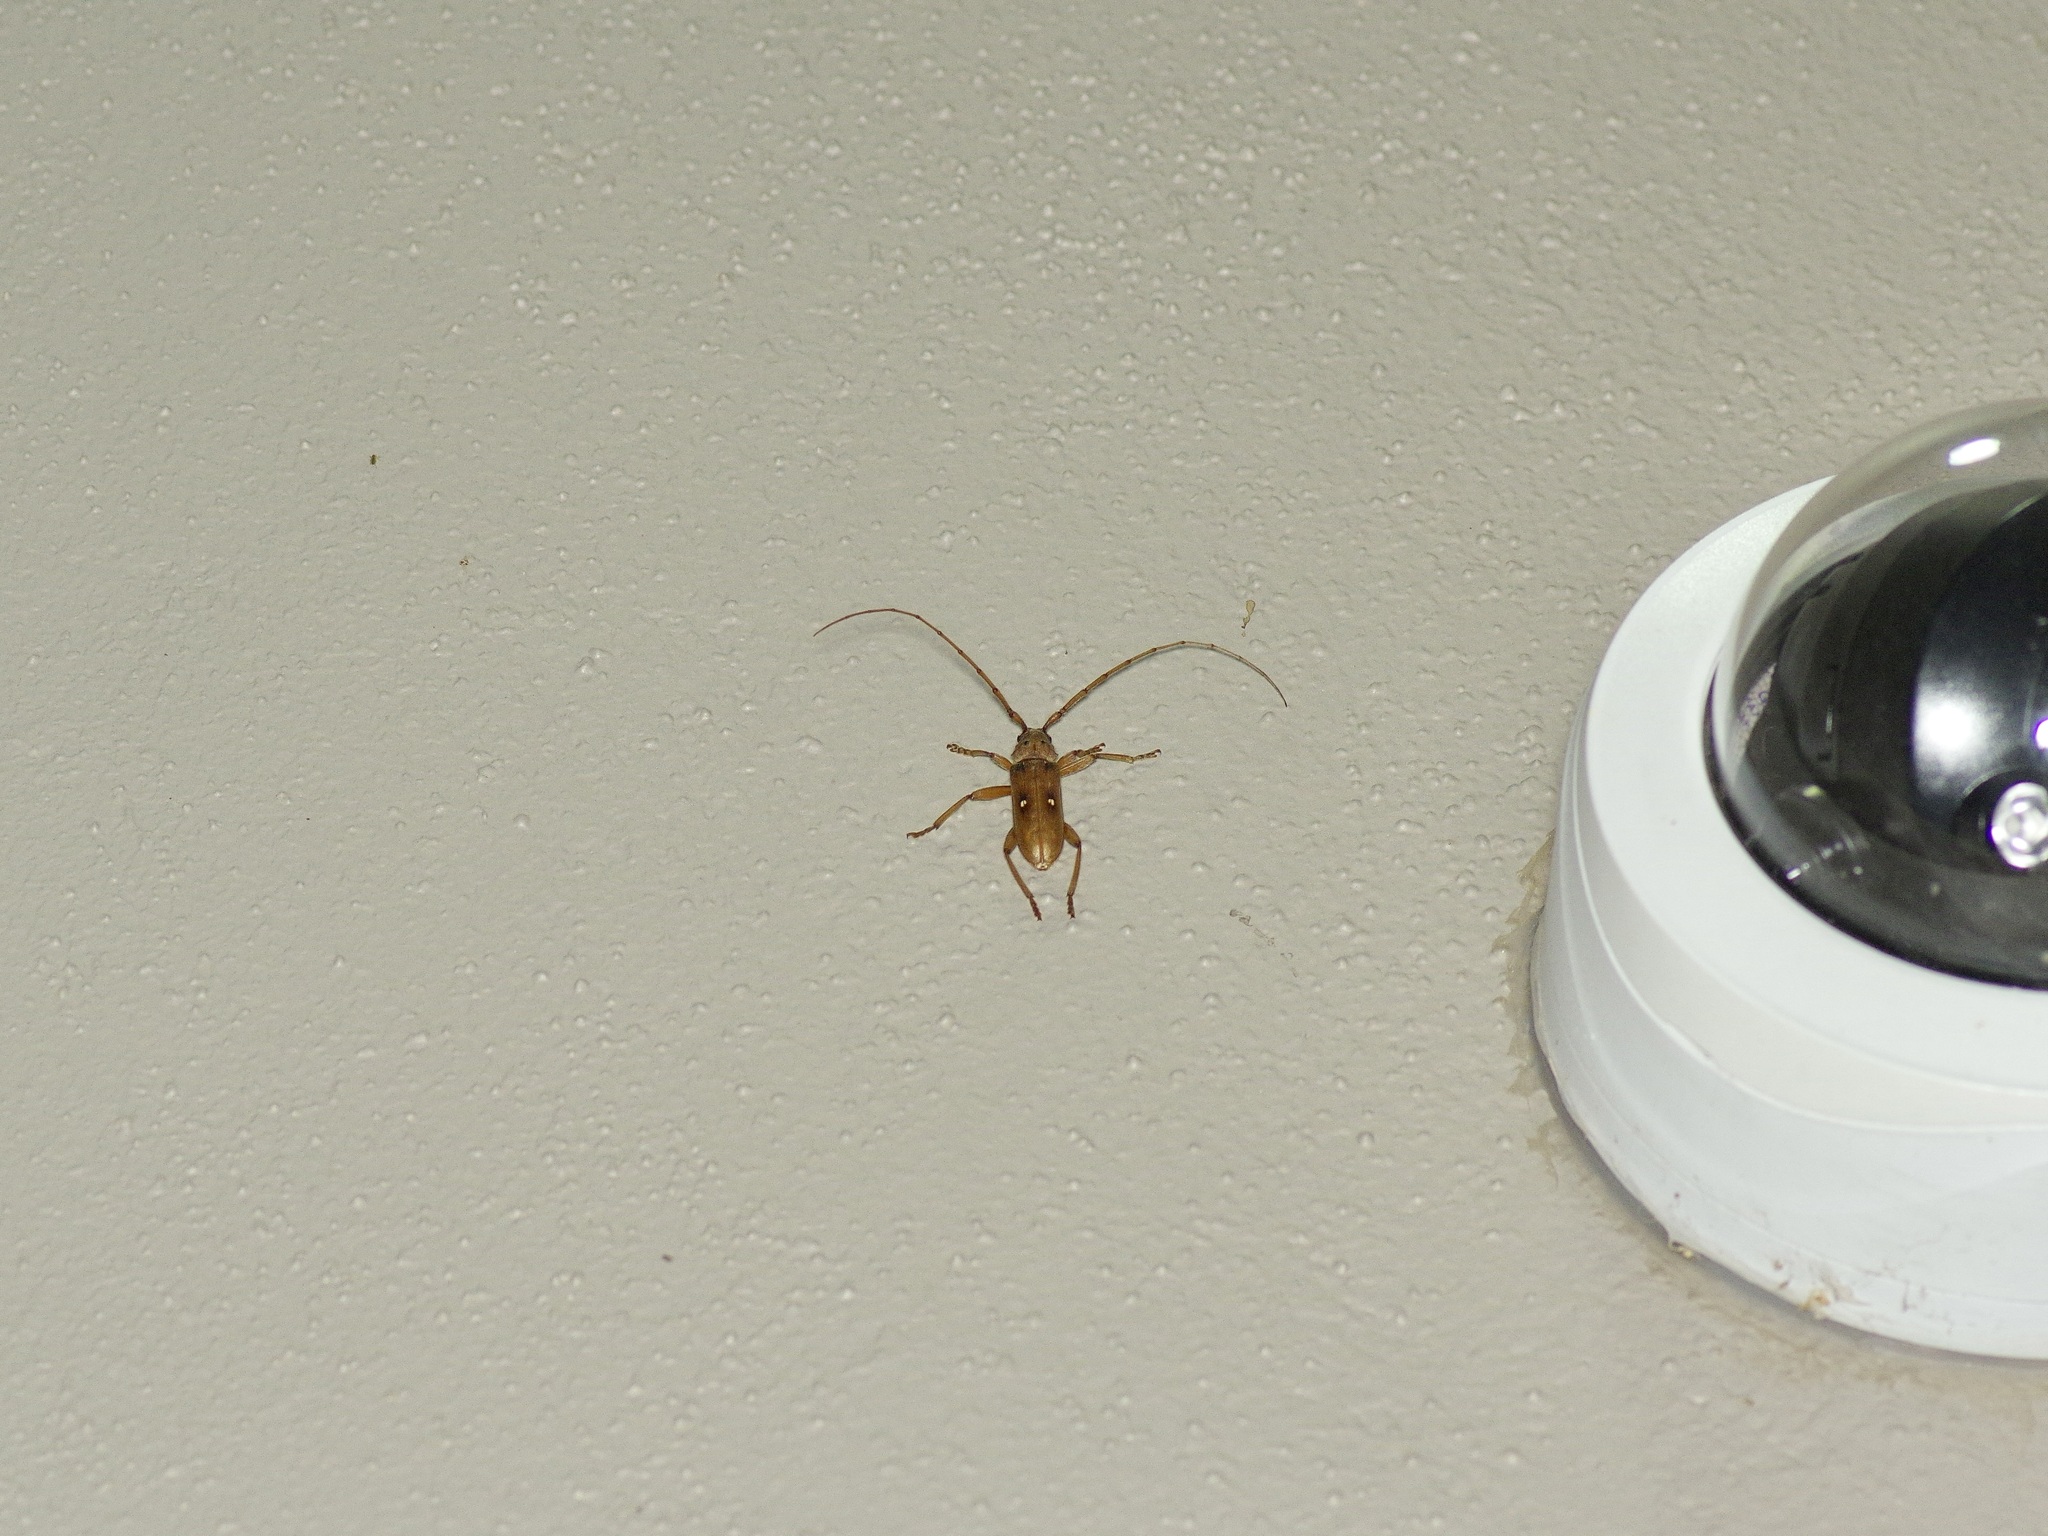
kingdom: Animalia
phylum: Arthropoda
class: Insecta
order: Coleoptera
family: Cerambycidae
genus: Eburia
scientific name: Eburia haldemani
